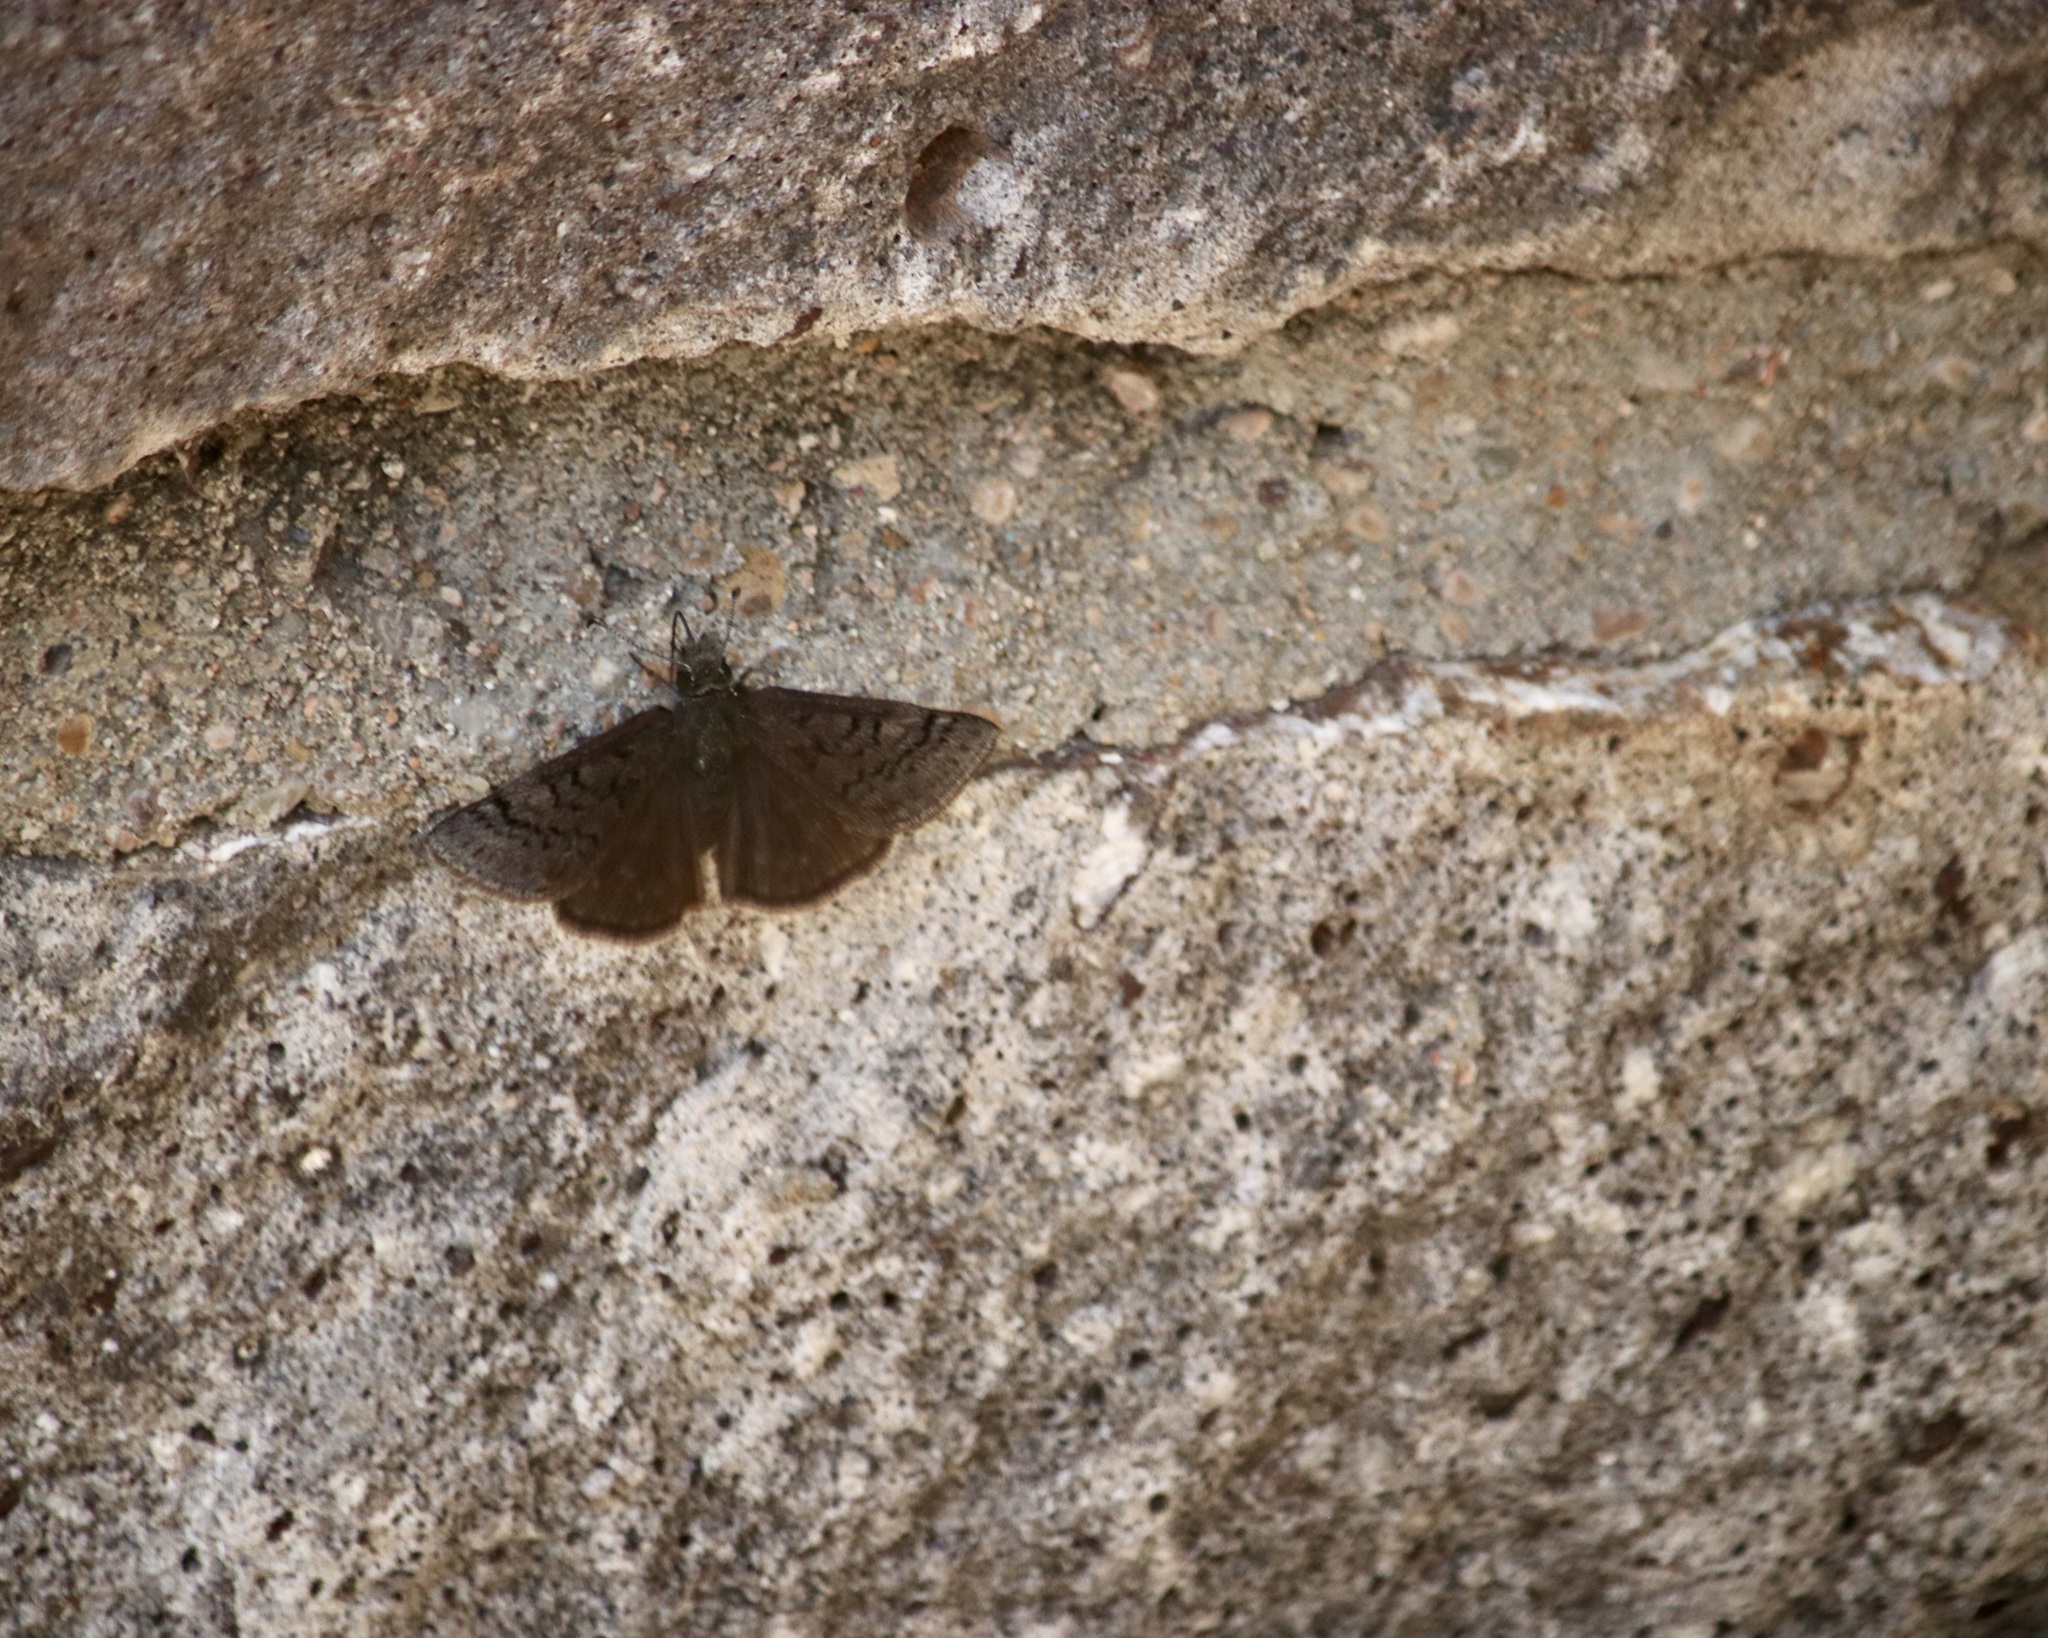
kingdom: Animalia
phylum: Arthropoda
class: Insecta
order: Lepidoptera
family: Hesperiidae
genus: Erynnis
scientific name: Erynnis brizo
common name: Sleepy duskywing
